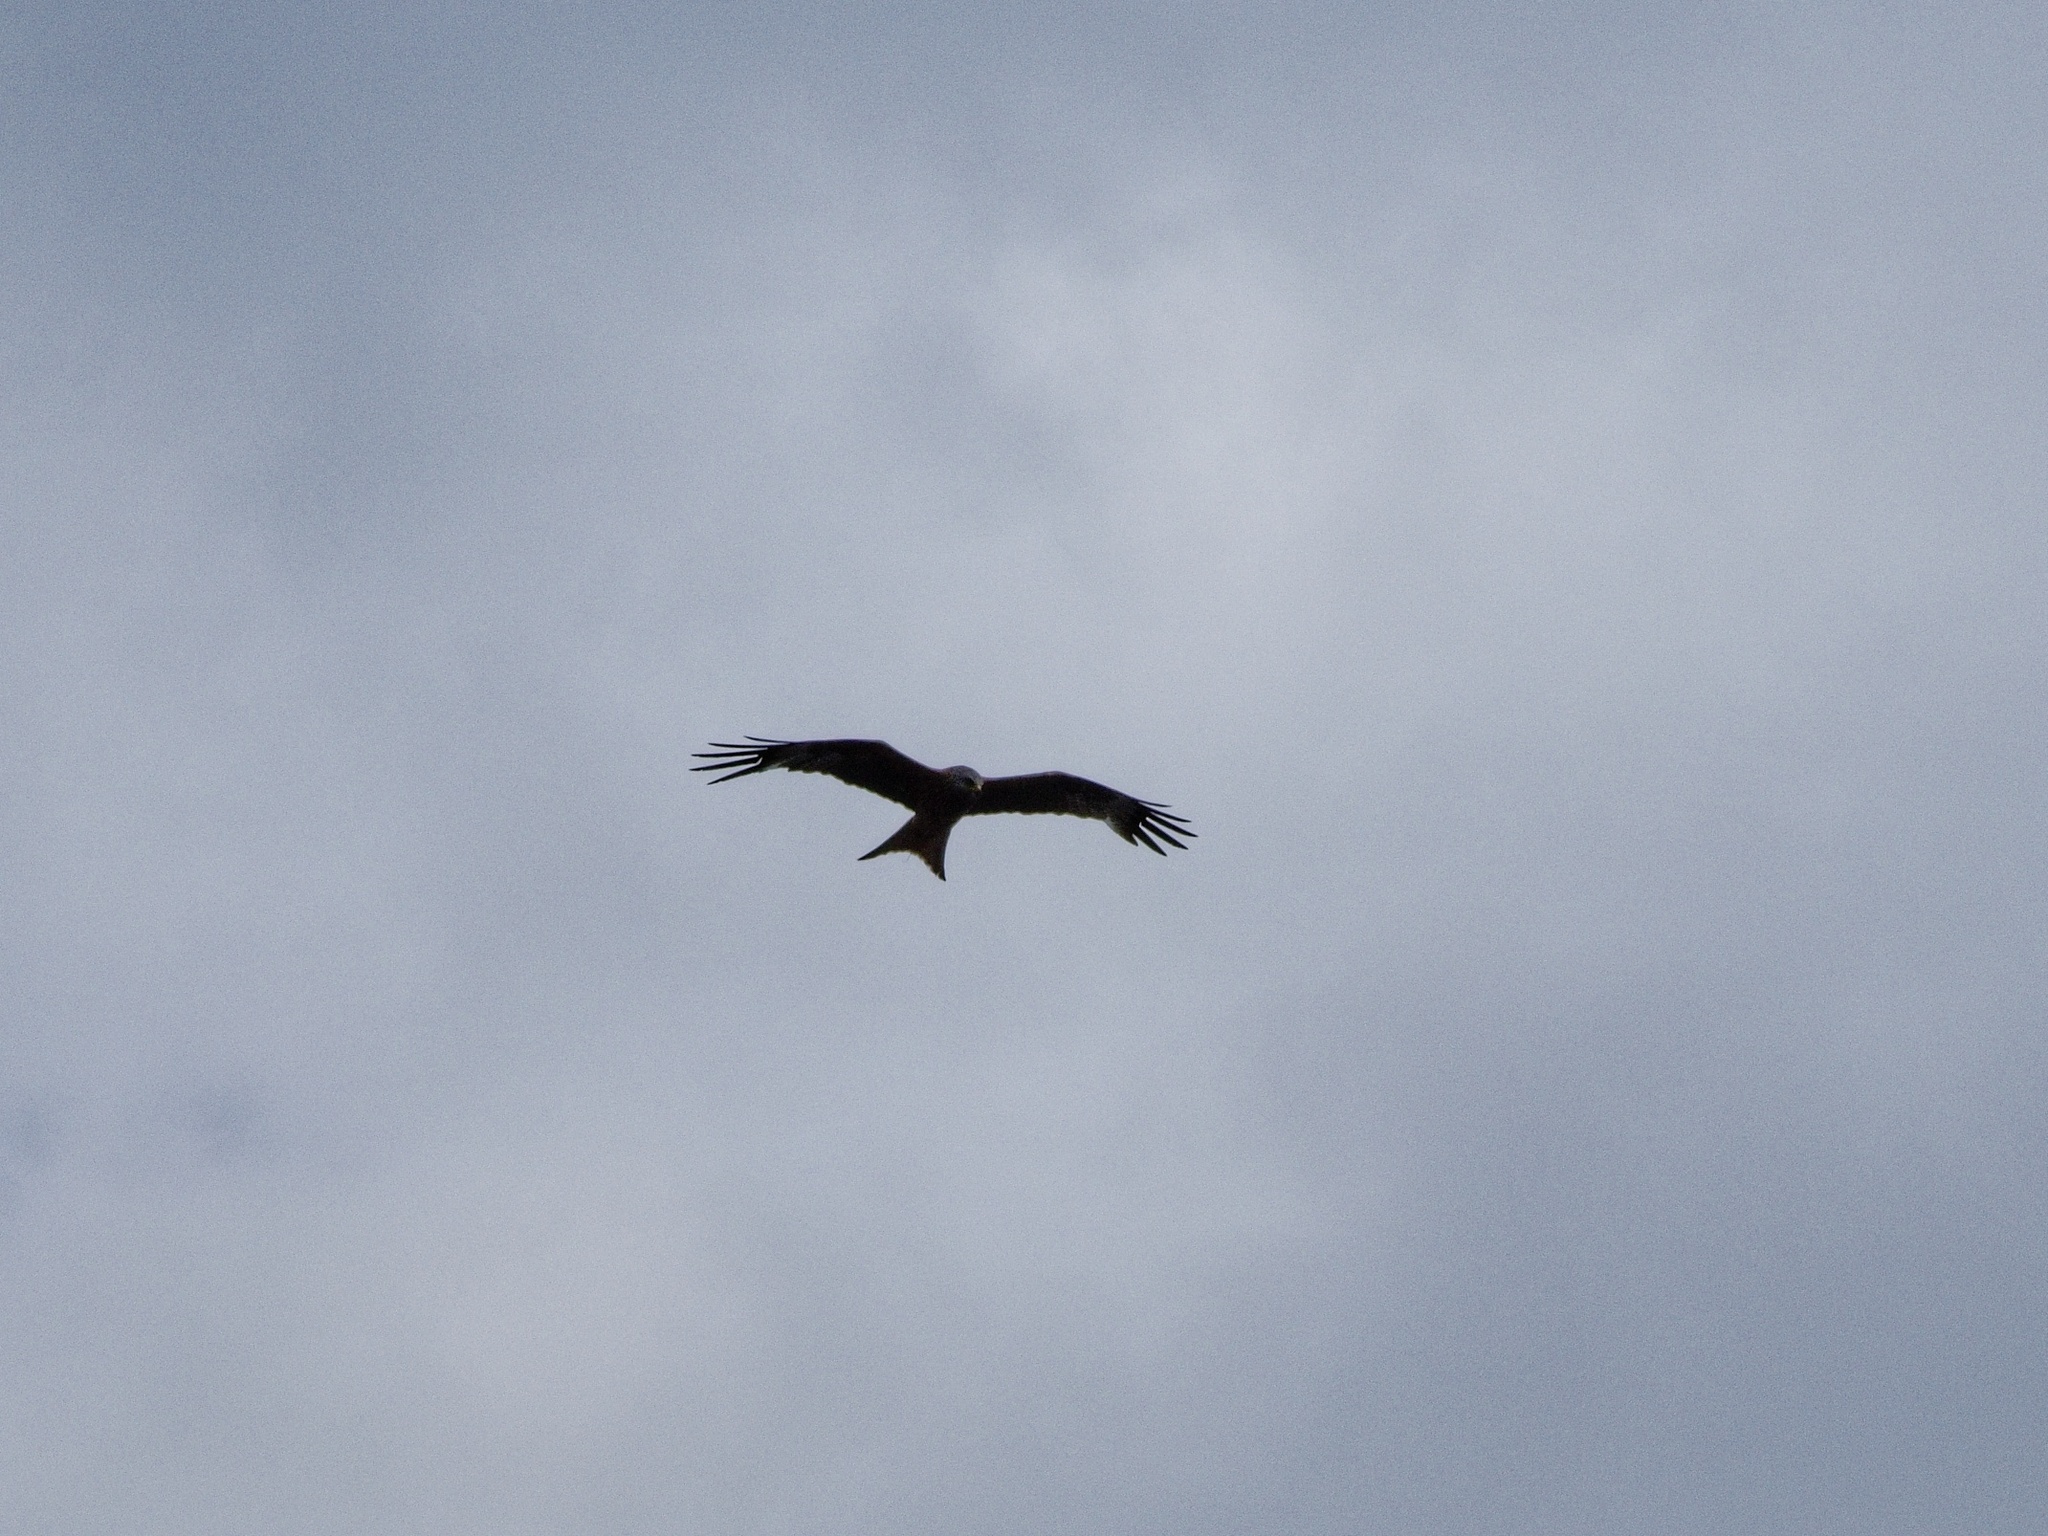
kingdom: Animalia
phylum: Chordata
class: Aves
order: Accipitriformes
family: Accipitridae
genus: Milvus
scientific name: Milvus milvus
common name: Red kite
